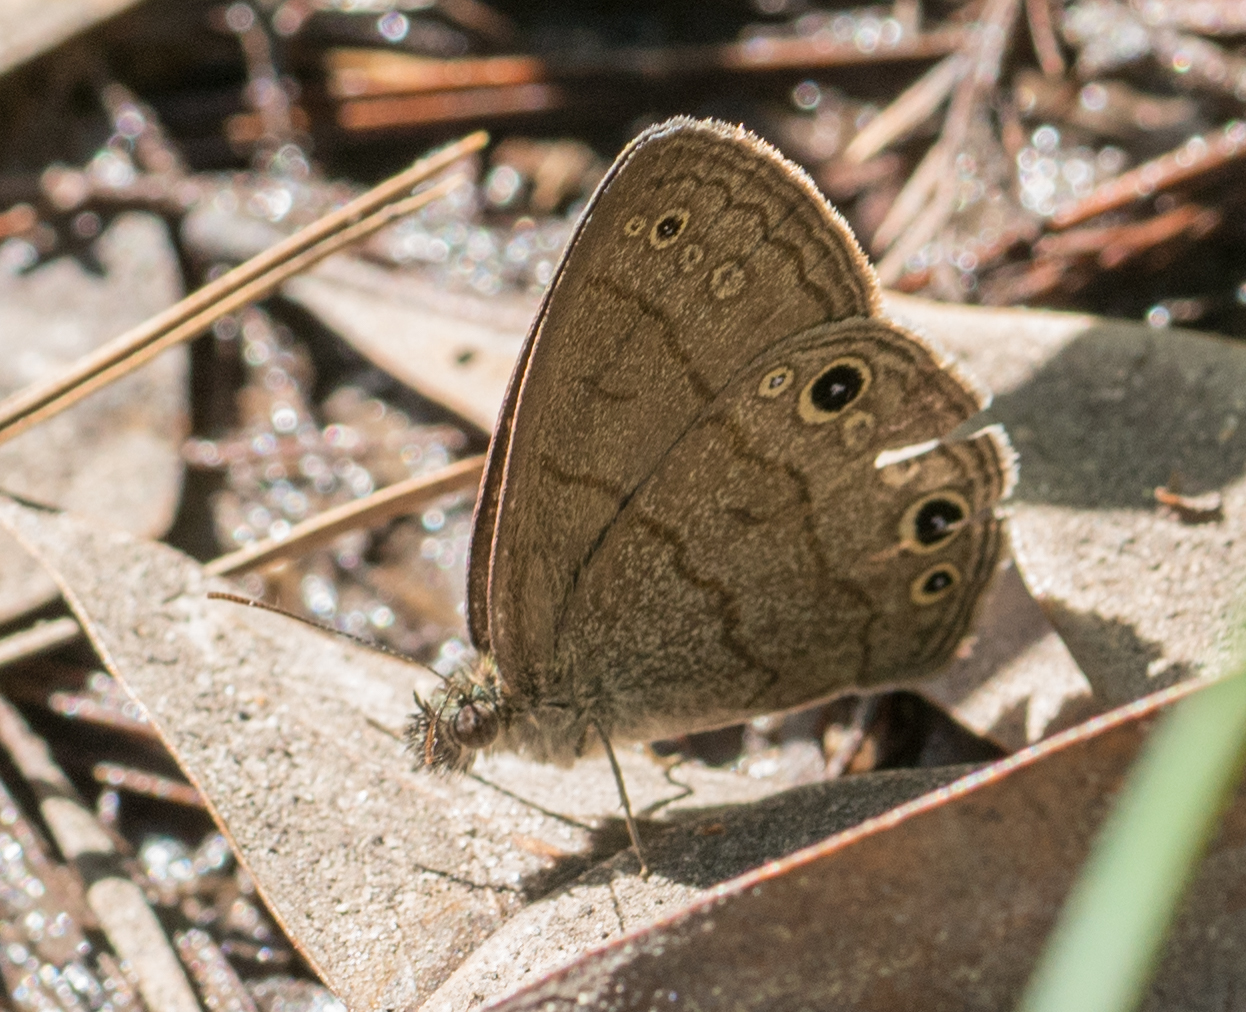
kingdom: Animalia
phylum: Arthropoda
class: Insecta
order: Lepidoptera
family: Nymphalidae
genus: Hermeuptychia
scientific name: Hermeuptychia hermes
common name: Hermes satyr
